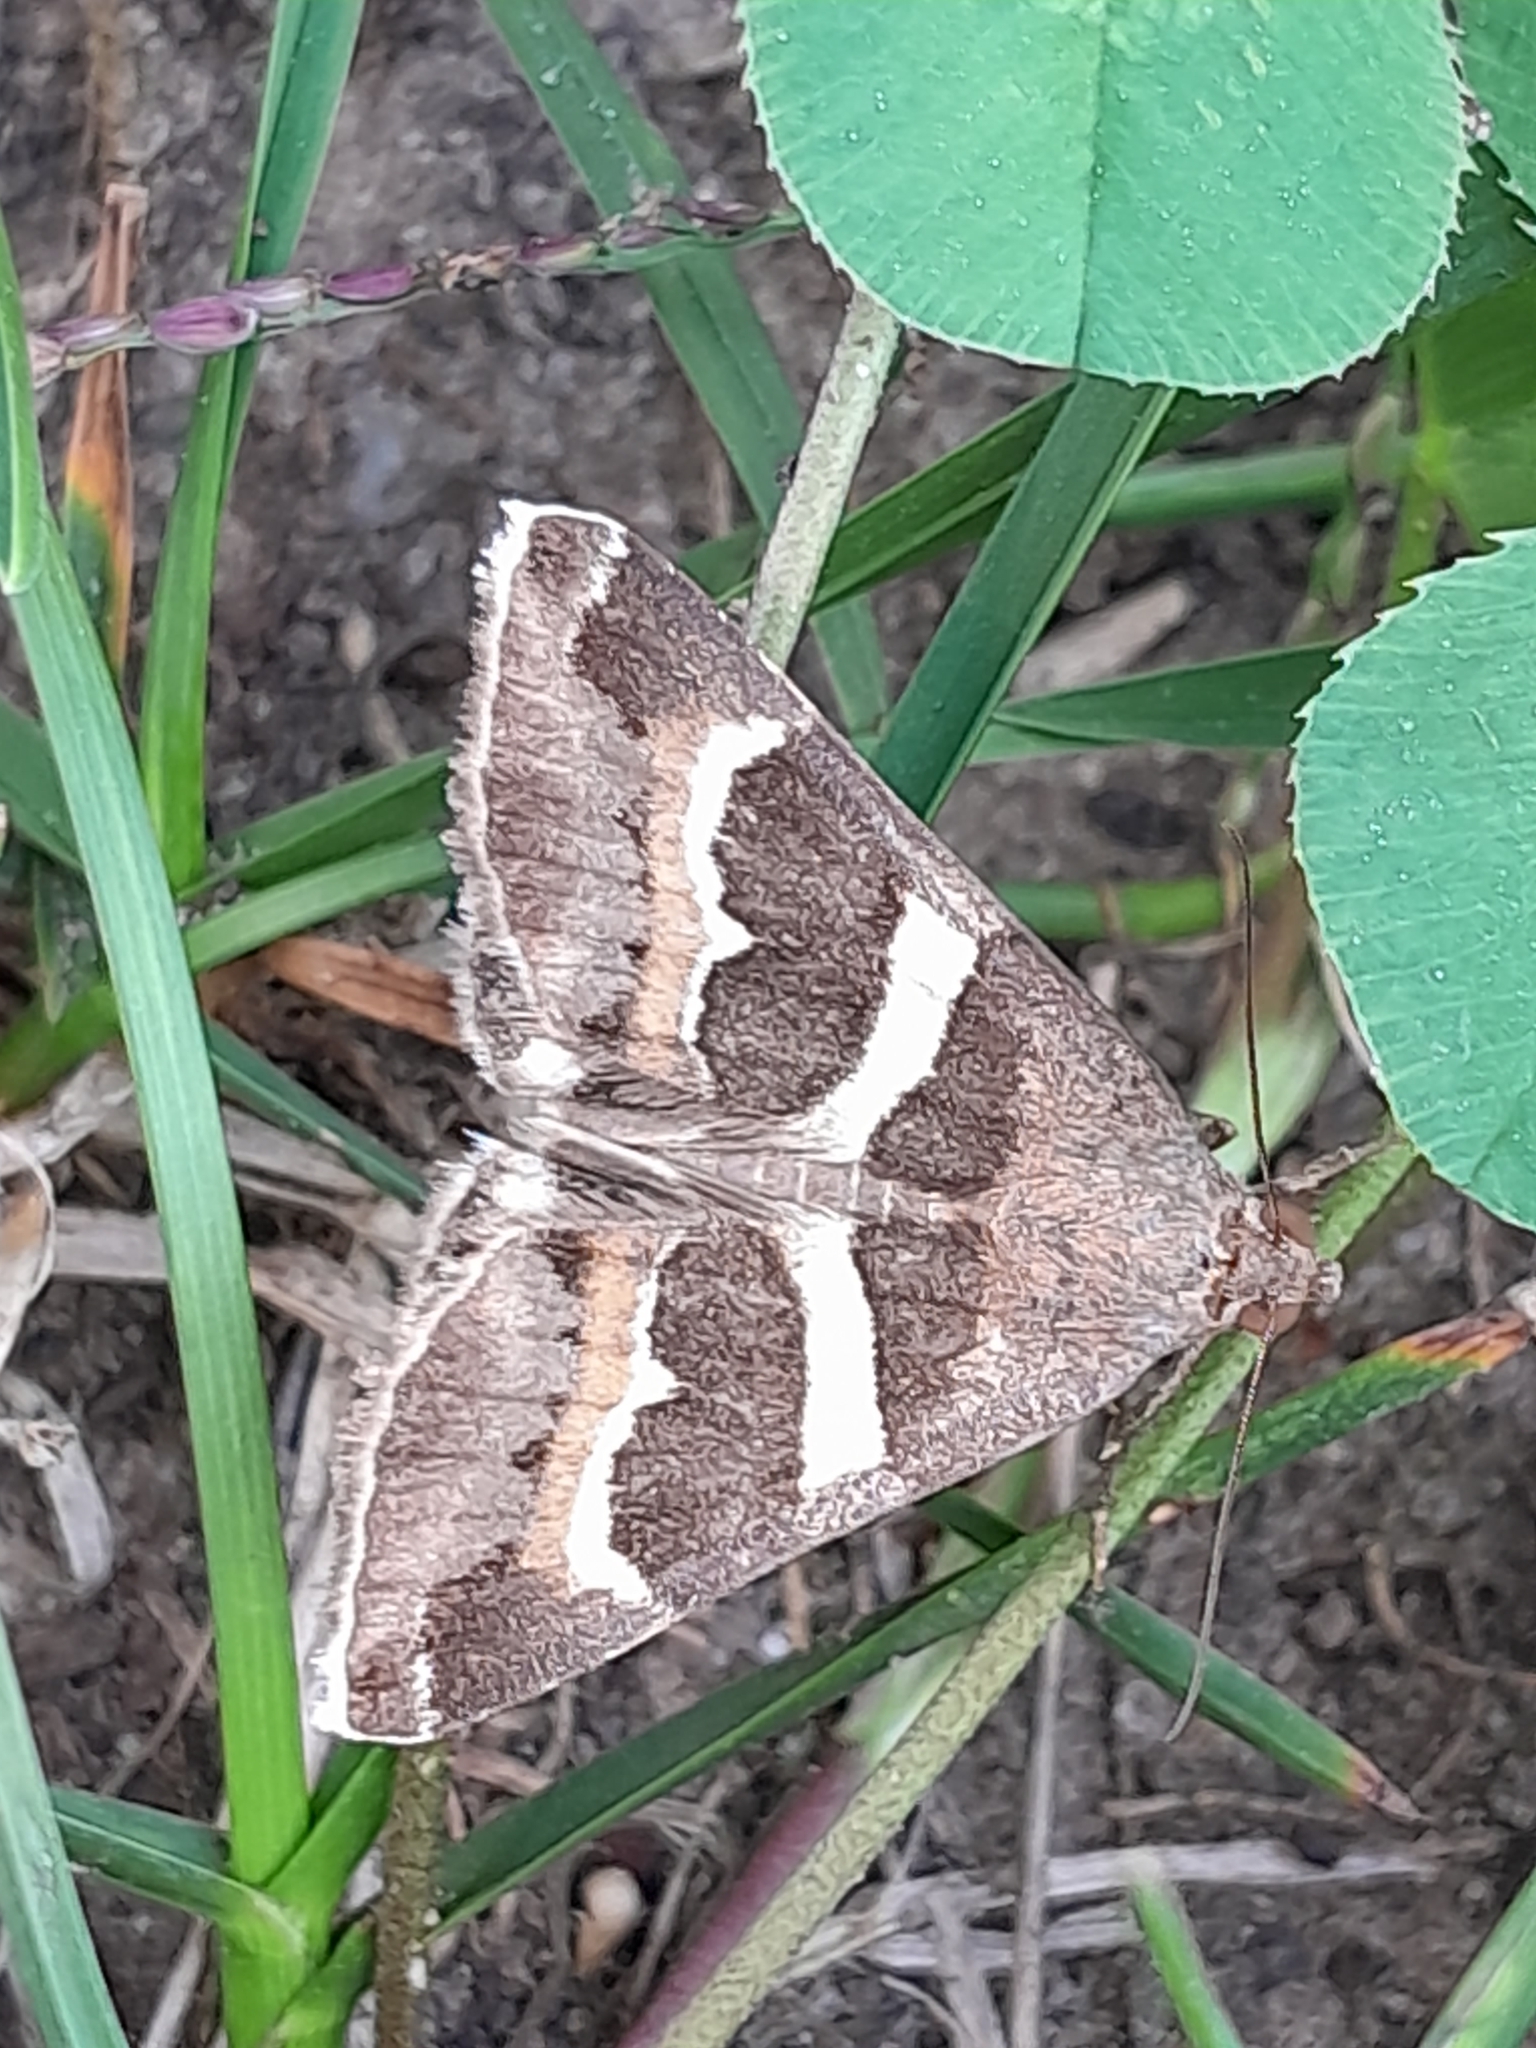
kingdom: Animalia
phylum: Arthropoda
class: Insecta
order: Lepidoptera
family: Erebidae
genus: Grammodes
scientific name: Grammodes stolida
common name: Geometrician
